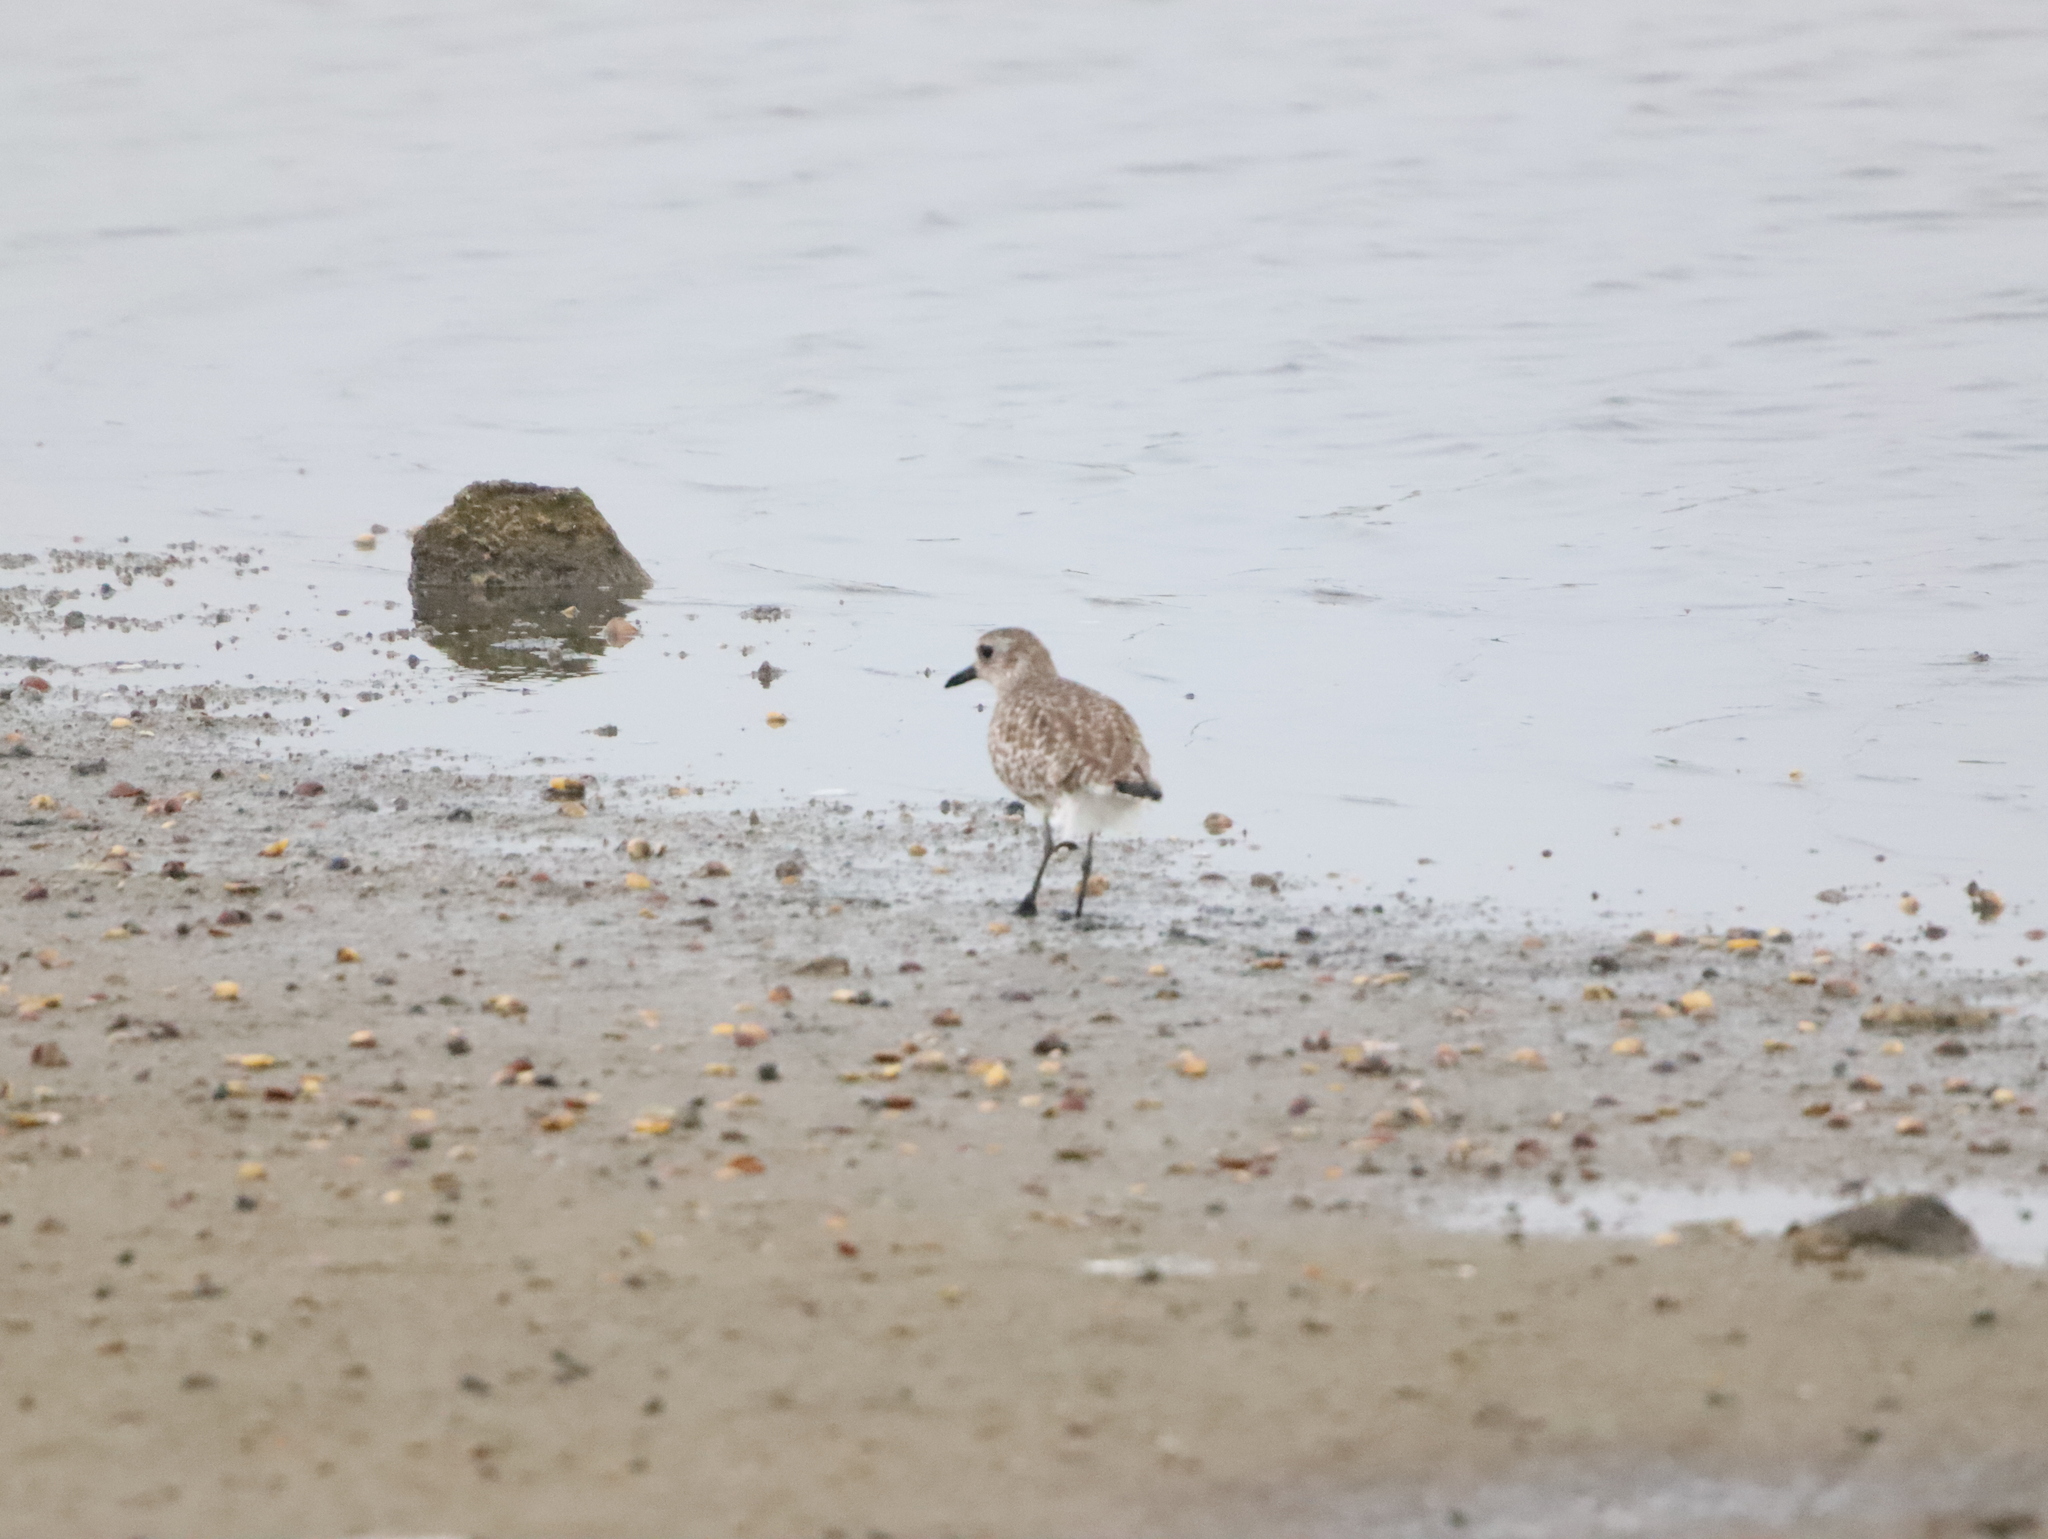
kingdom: Animalia
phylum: Chordata
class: Aves
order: Charadriiformes
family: Charadriidae
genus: Pluvialis
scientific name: Pluvialis squatarola
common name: Grey plover
